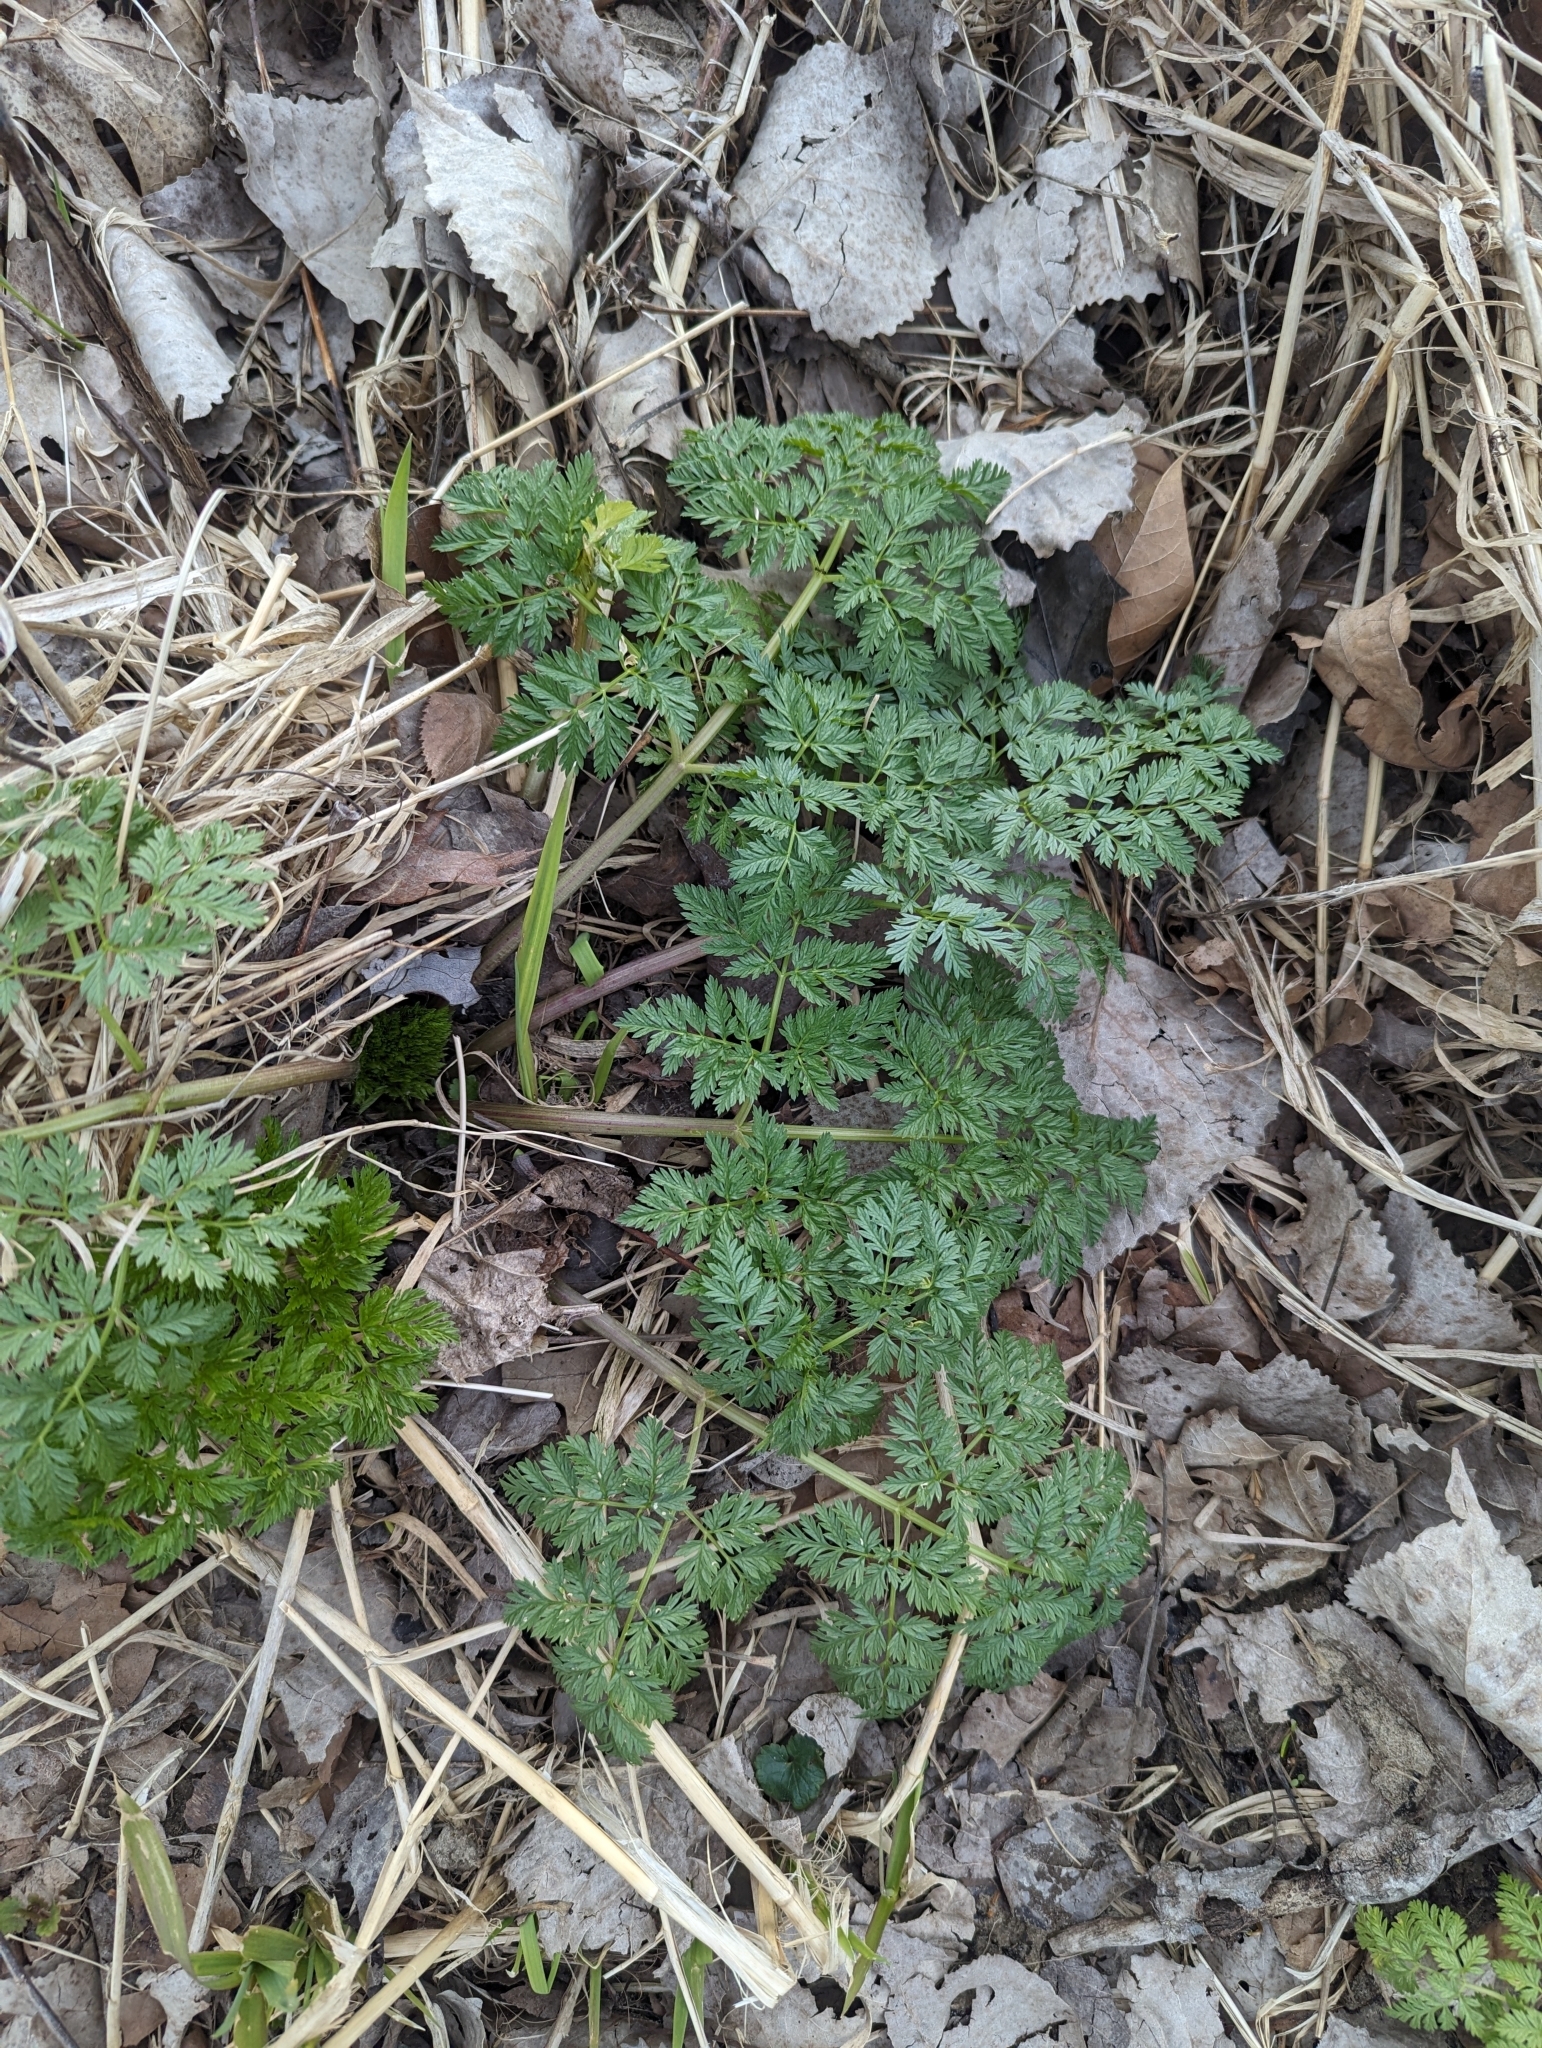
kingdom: Plantae
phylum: Tracheophyta
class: Magnoliopsida
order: Apiales
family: Apiaceae
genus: Conium
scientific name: Conium maculatum
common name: Hemlock
